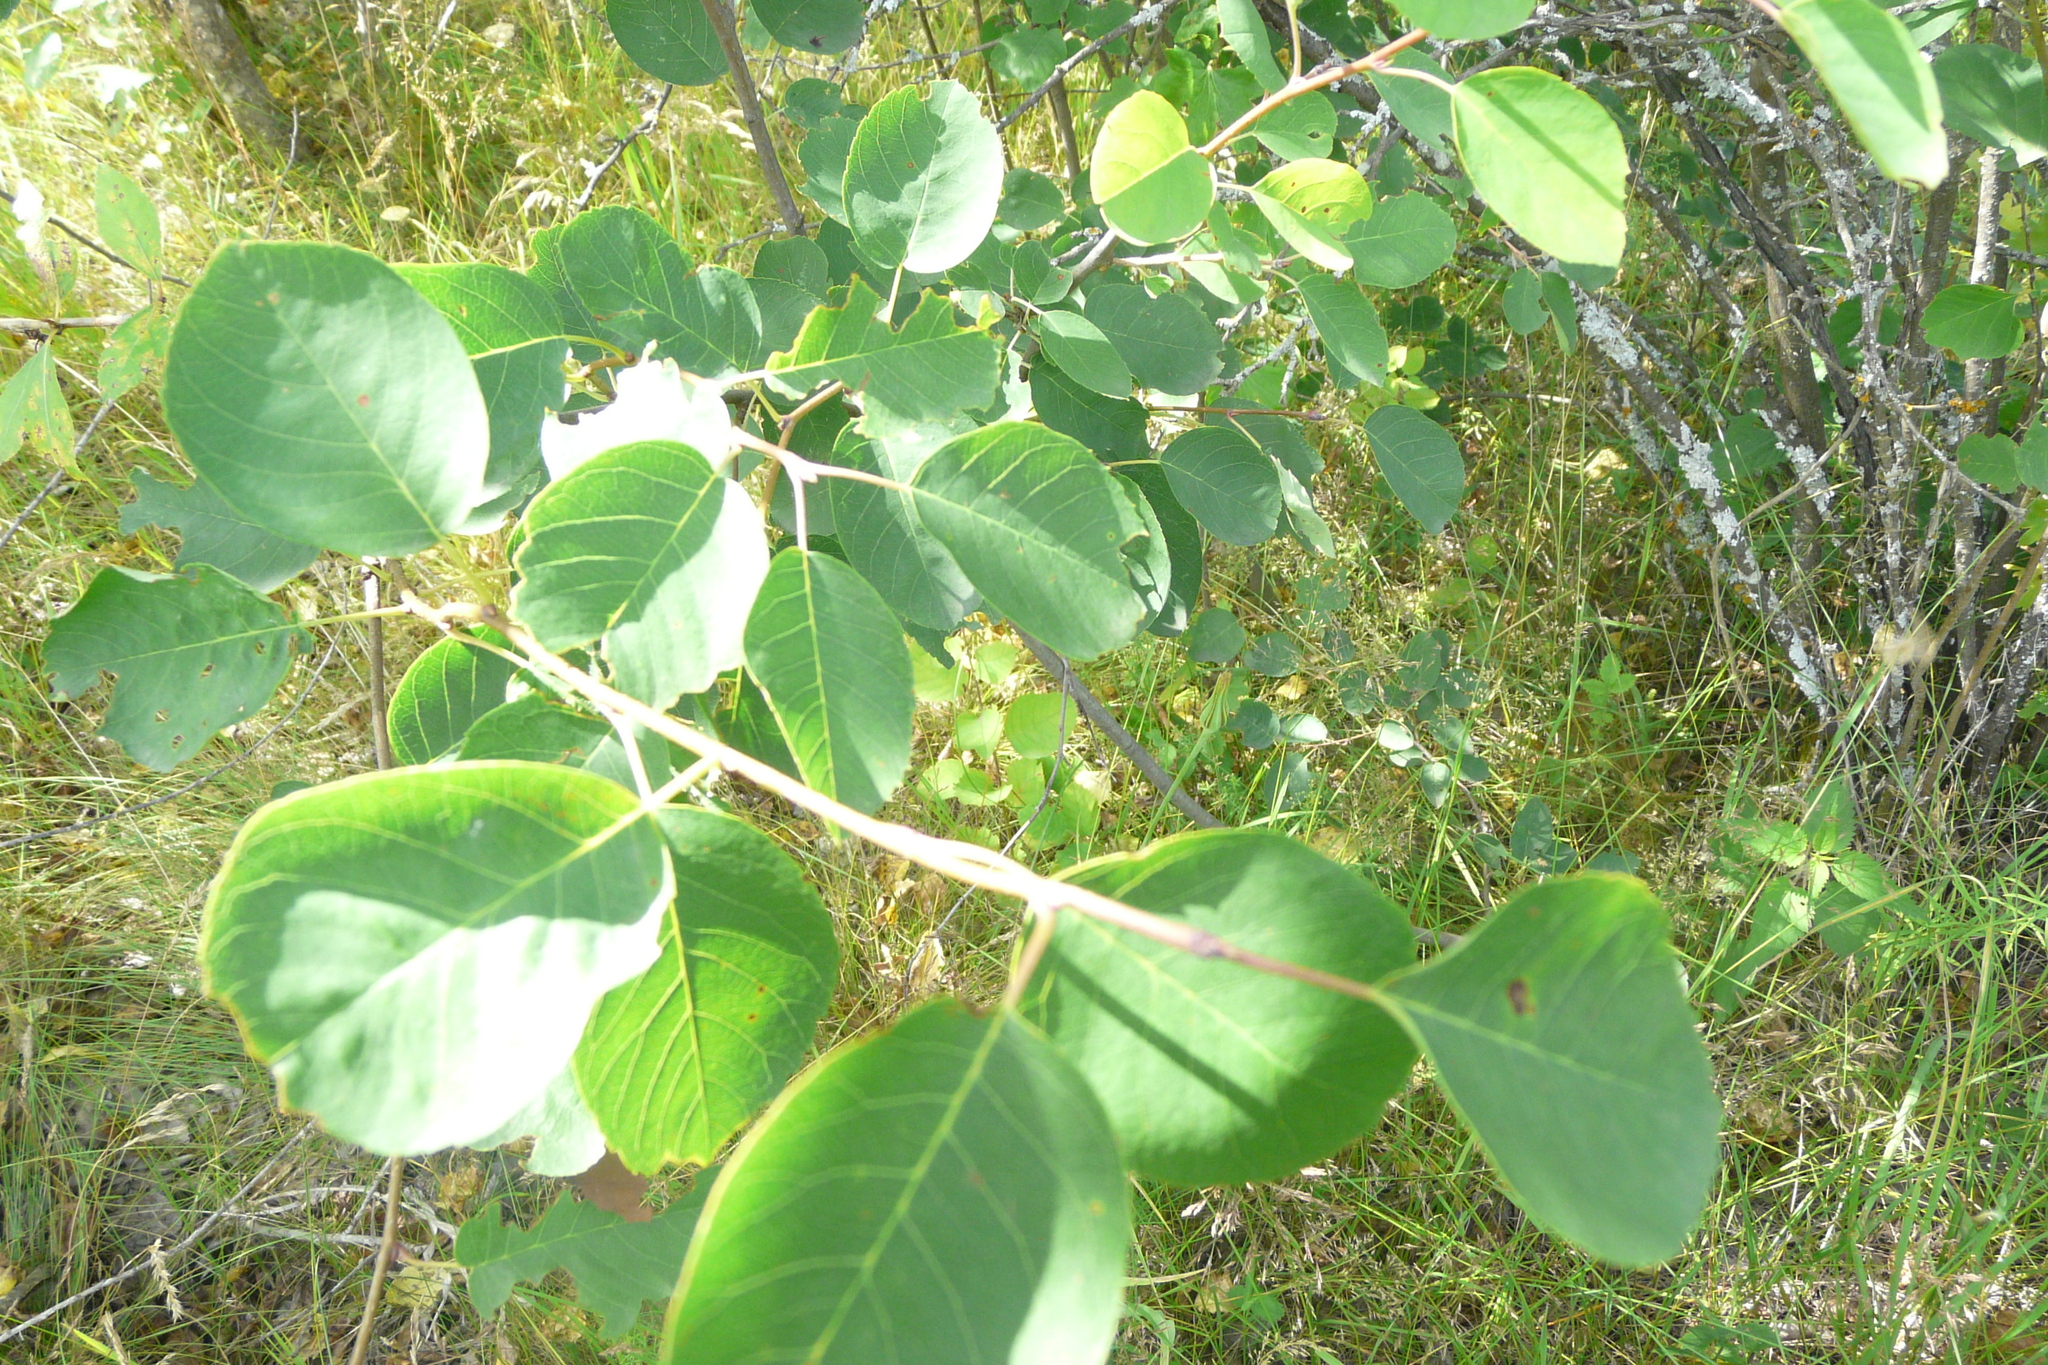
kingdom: Plantae
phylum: Tracheophyta
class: Magnoliopsida
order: Rosales
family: Rosaceae
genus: Amelanchier
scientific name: Amelanchier
